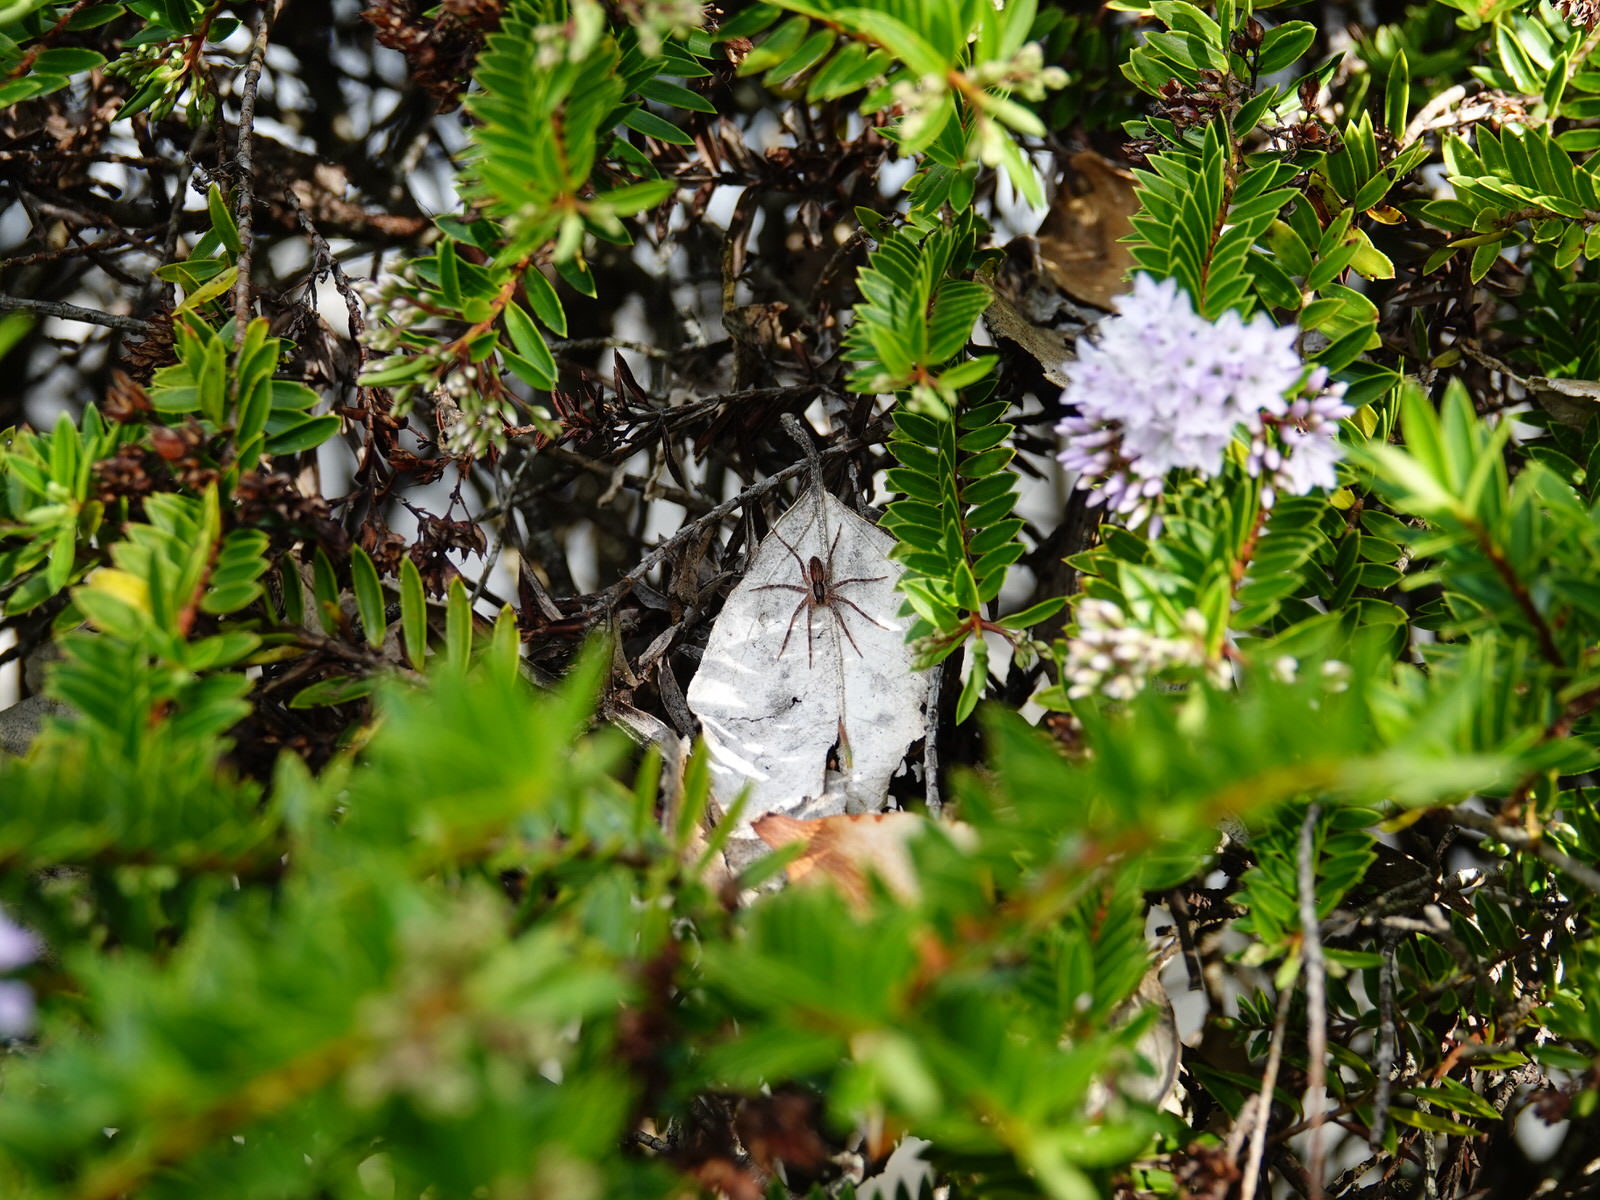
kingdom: Animalia
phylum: Arthropoda
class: Arachnida
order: Araneae
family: Pisauridae
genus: Dolomedes
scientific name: Dolomedes minor
